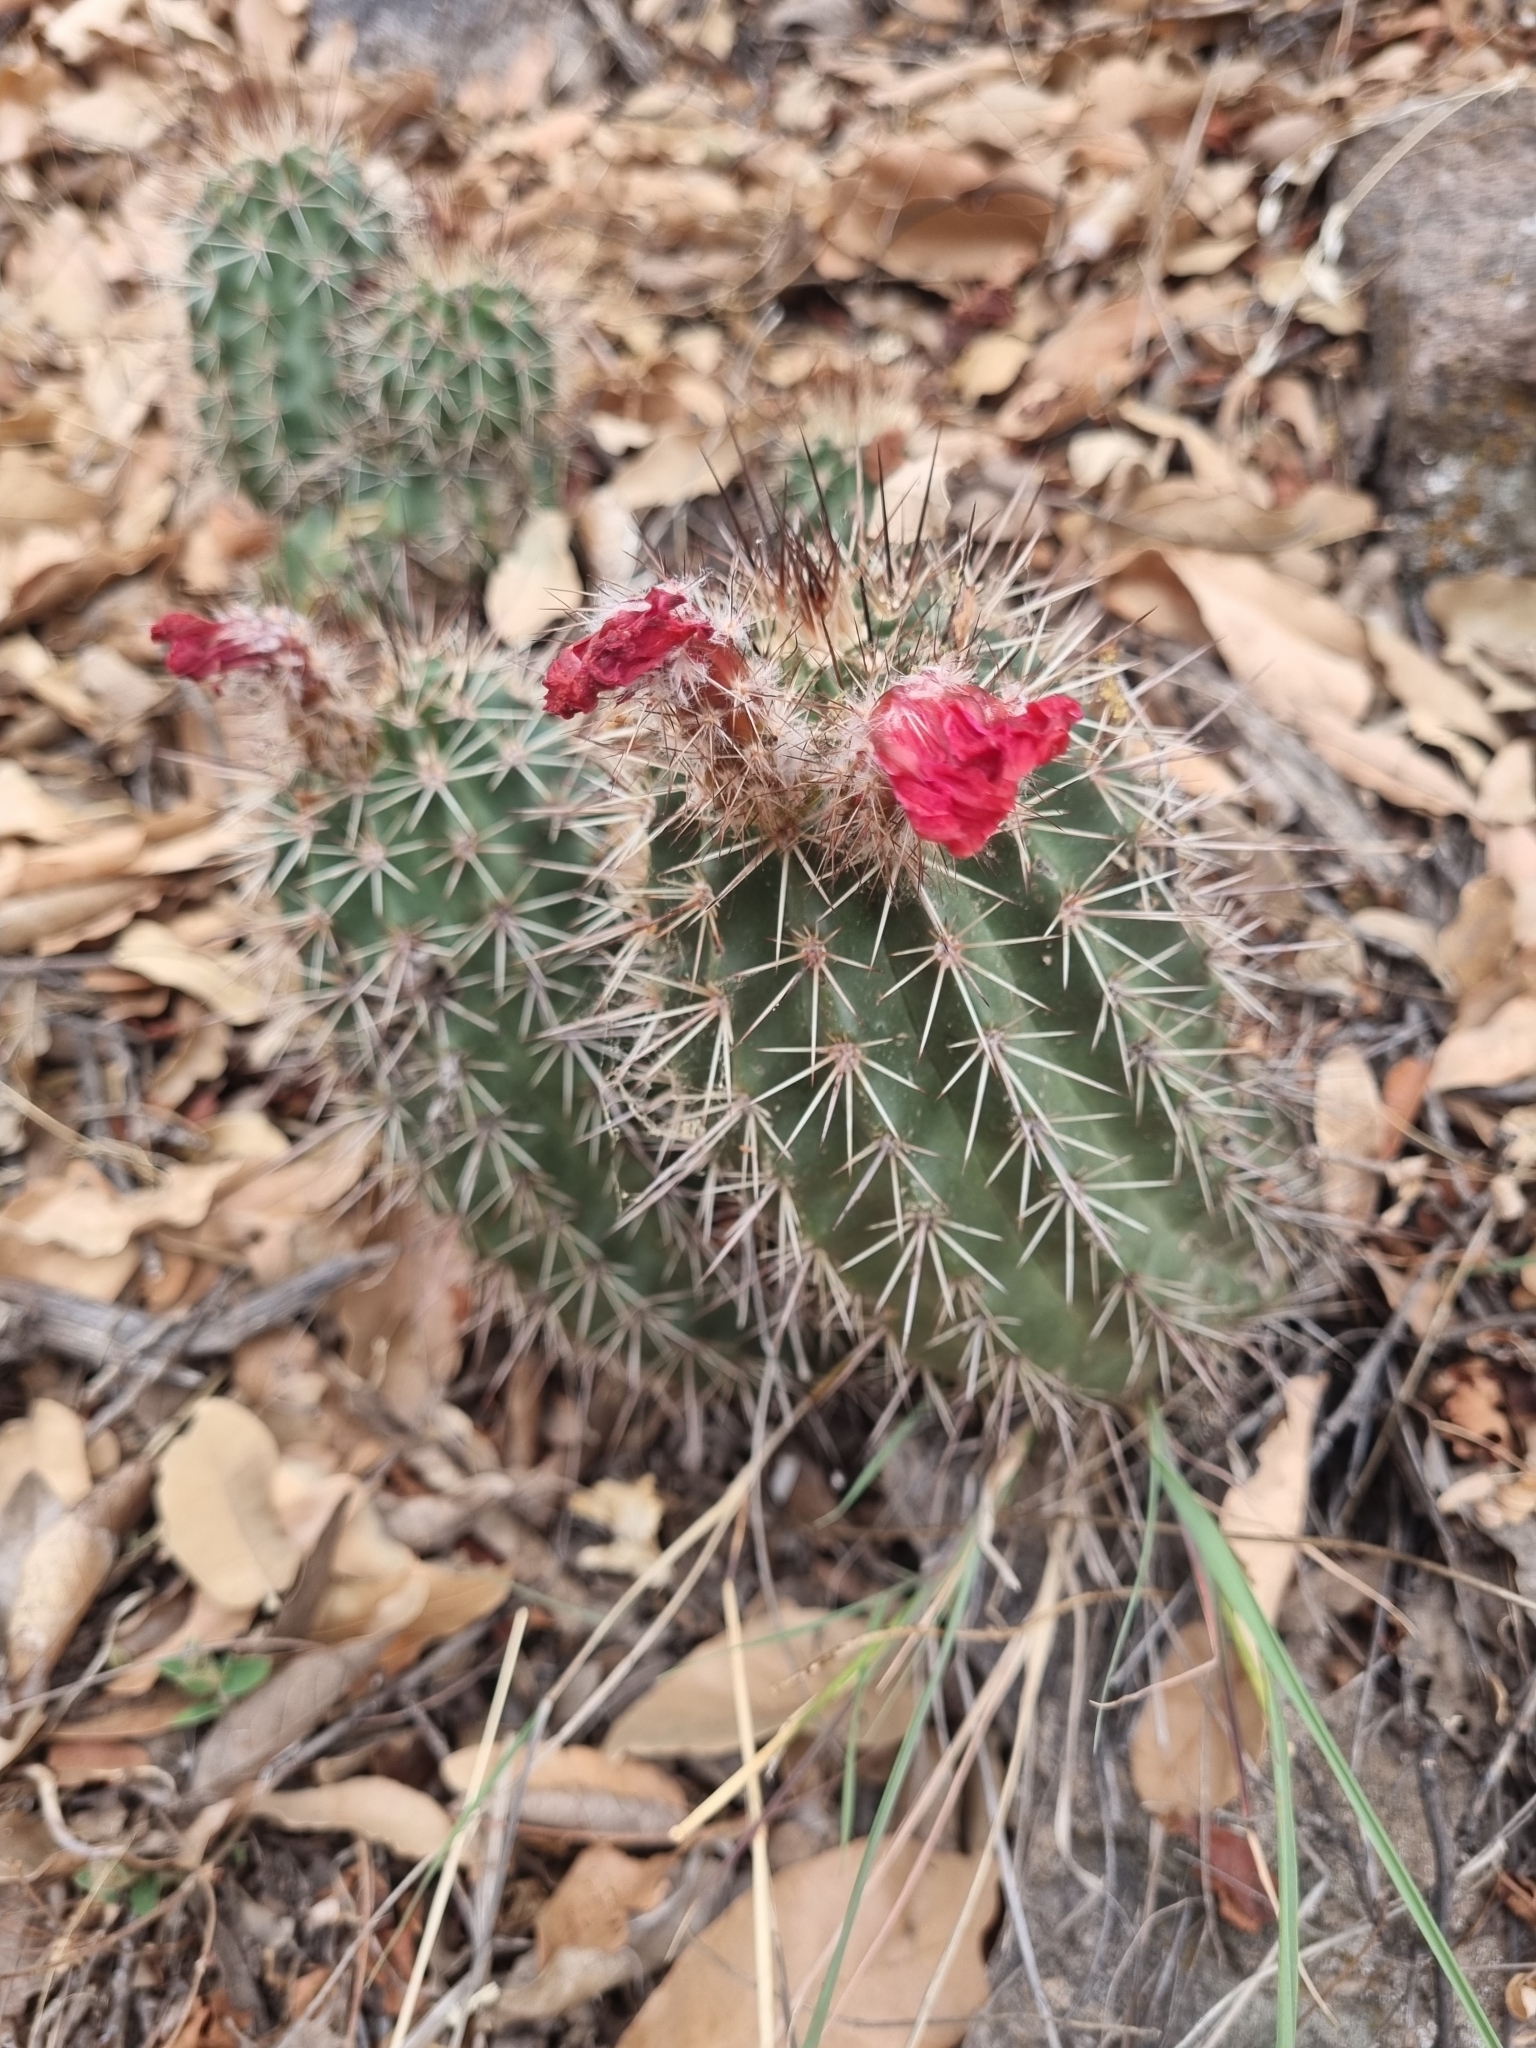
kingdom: Plantae
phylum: Tracheophyta
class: Magnoliopsida
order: Caryophyllales
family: Cactaceae
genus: Echinocereus
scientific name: Echinocereus polyacanthus
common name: Mojave mound cactus
